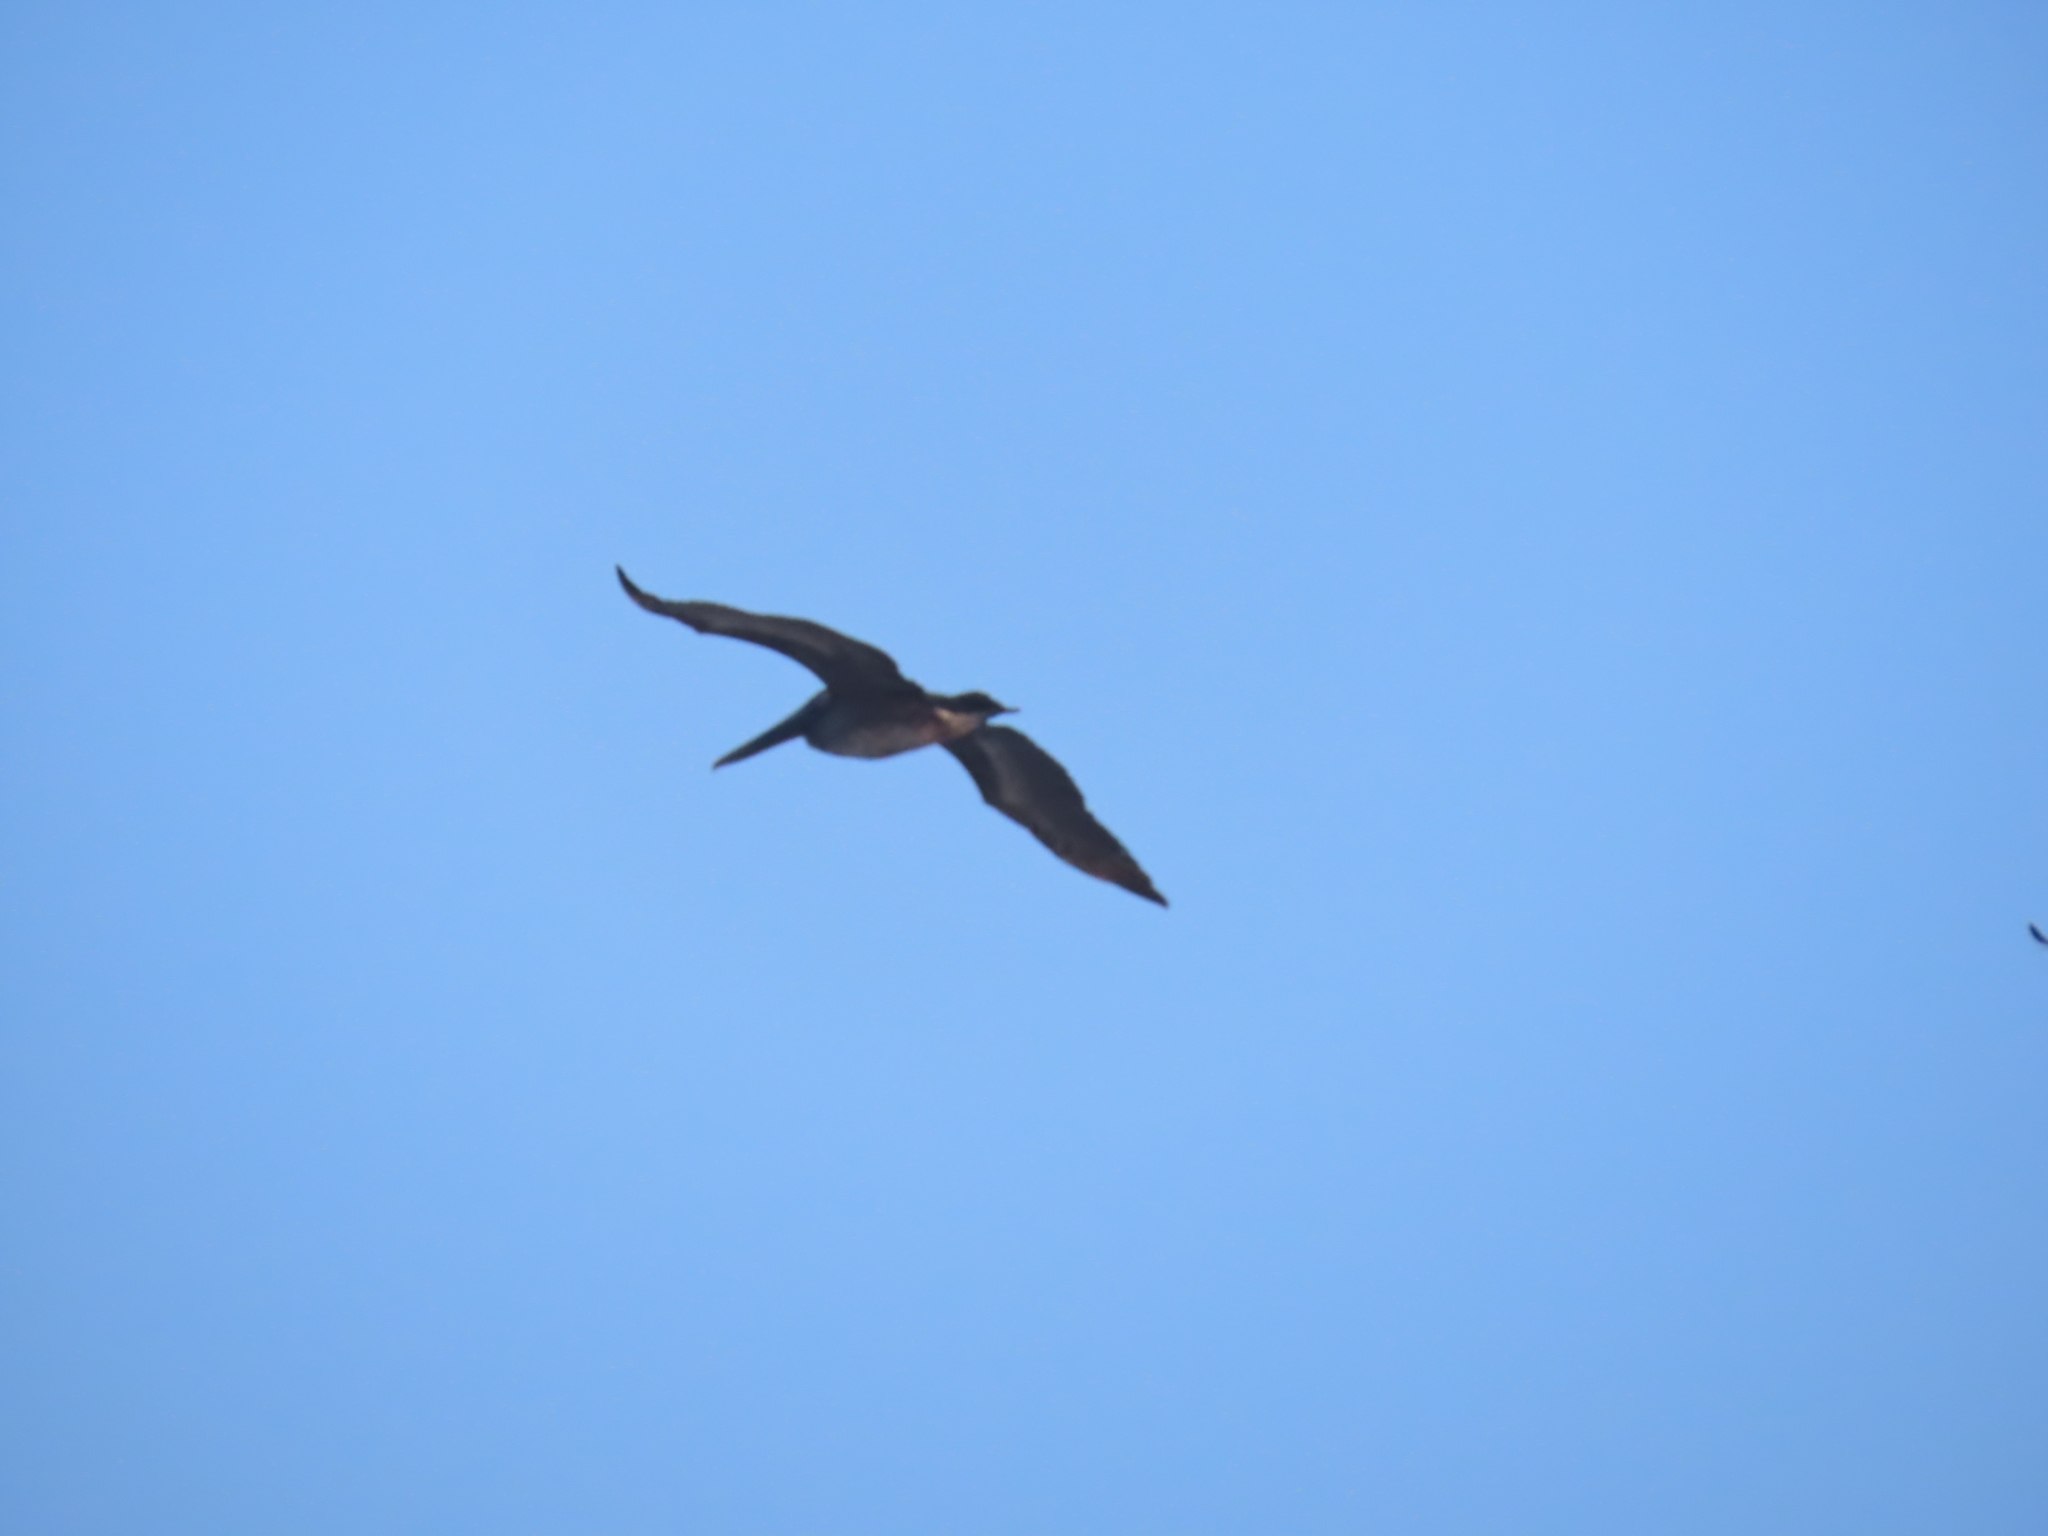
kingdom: Animalia
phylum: Chordata
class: Aves
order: Pelecaniformes
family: Pelecanidae
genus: Pelecanus
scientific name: Pelecanus occidentalis
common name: Brown pelican
